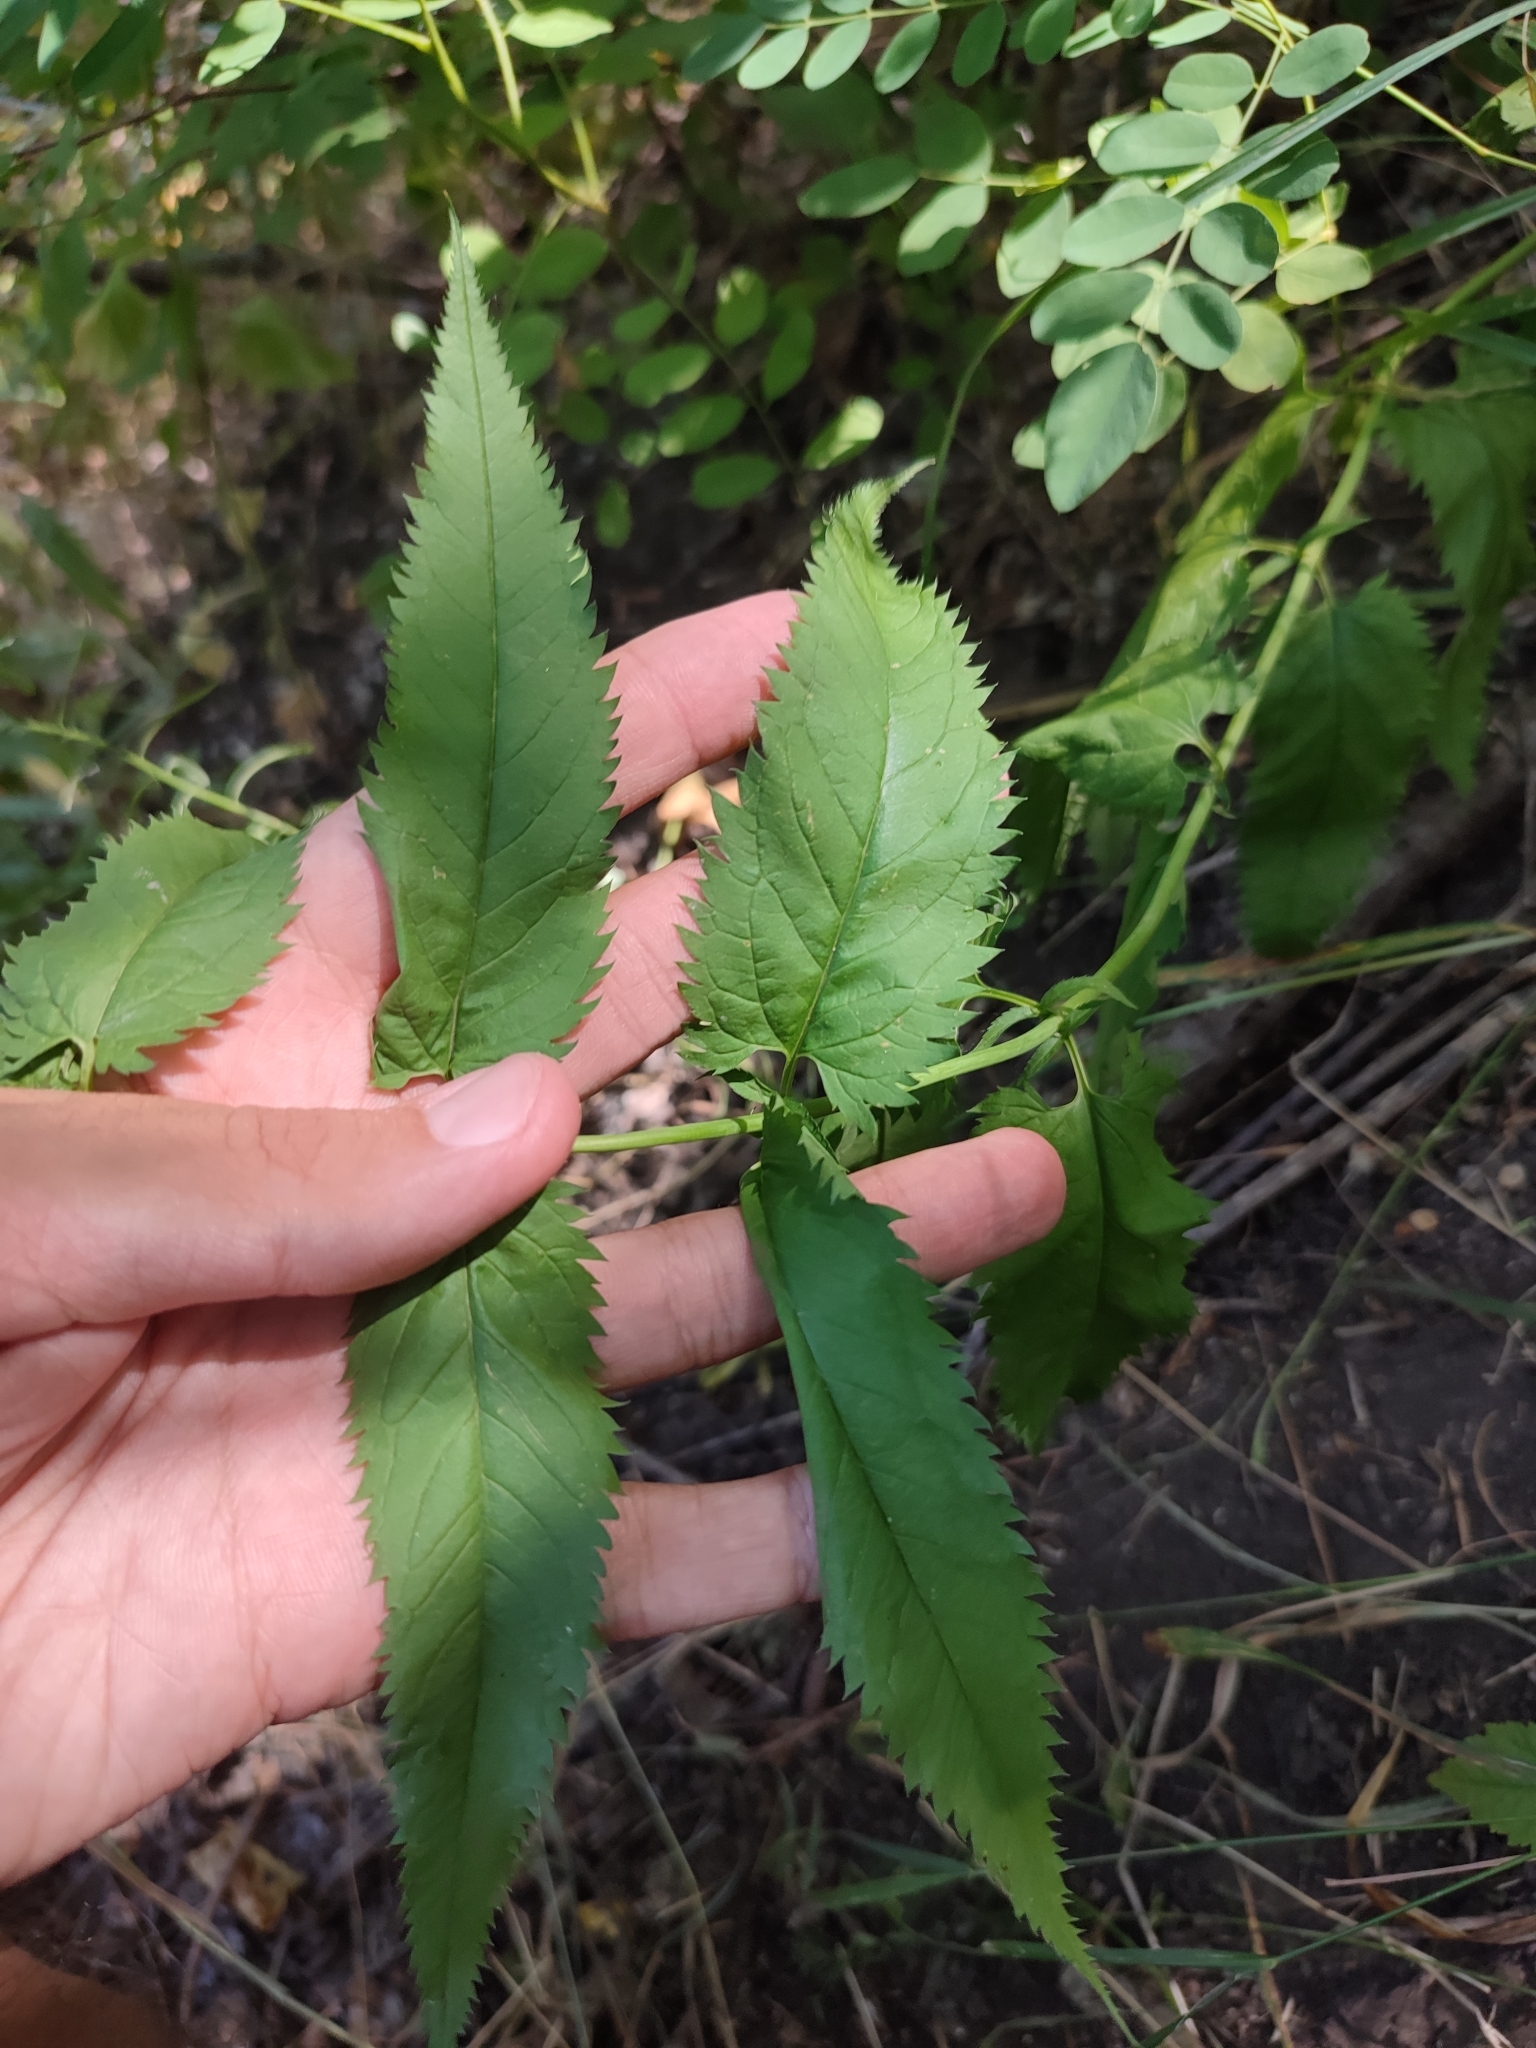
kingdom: Plantae
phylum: Tracheophyta
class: Magnoliopsida
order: Lamiales
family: Plantaginaceae
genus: Veronica
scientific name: Veronica longifolia
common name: Garden speedwell
